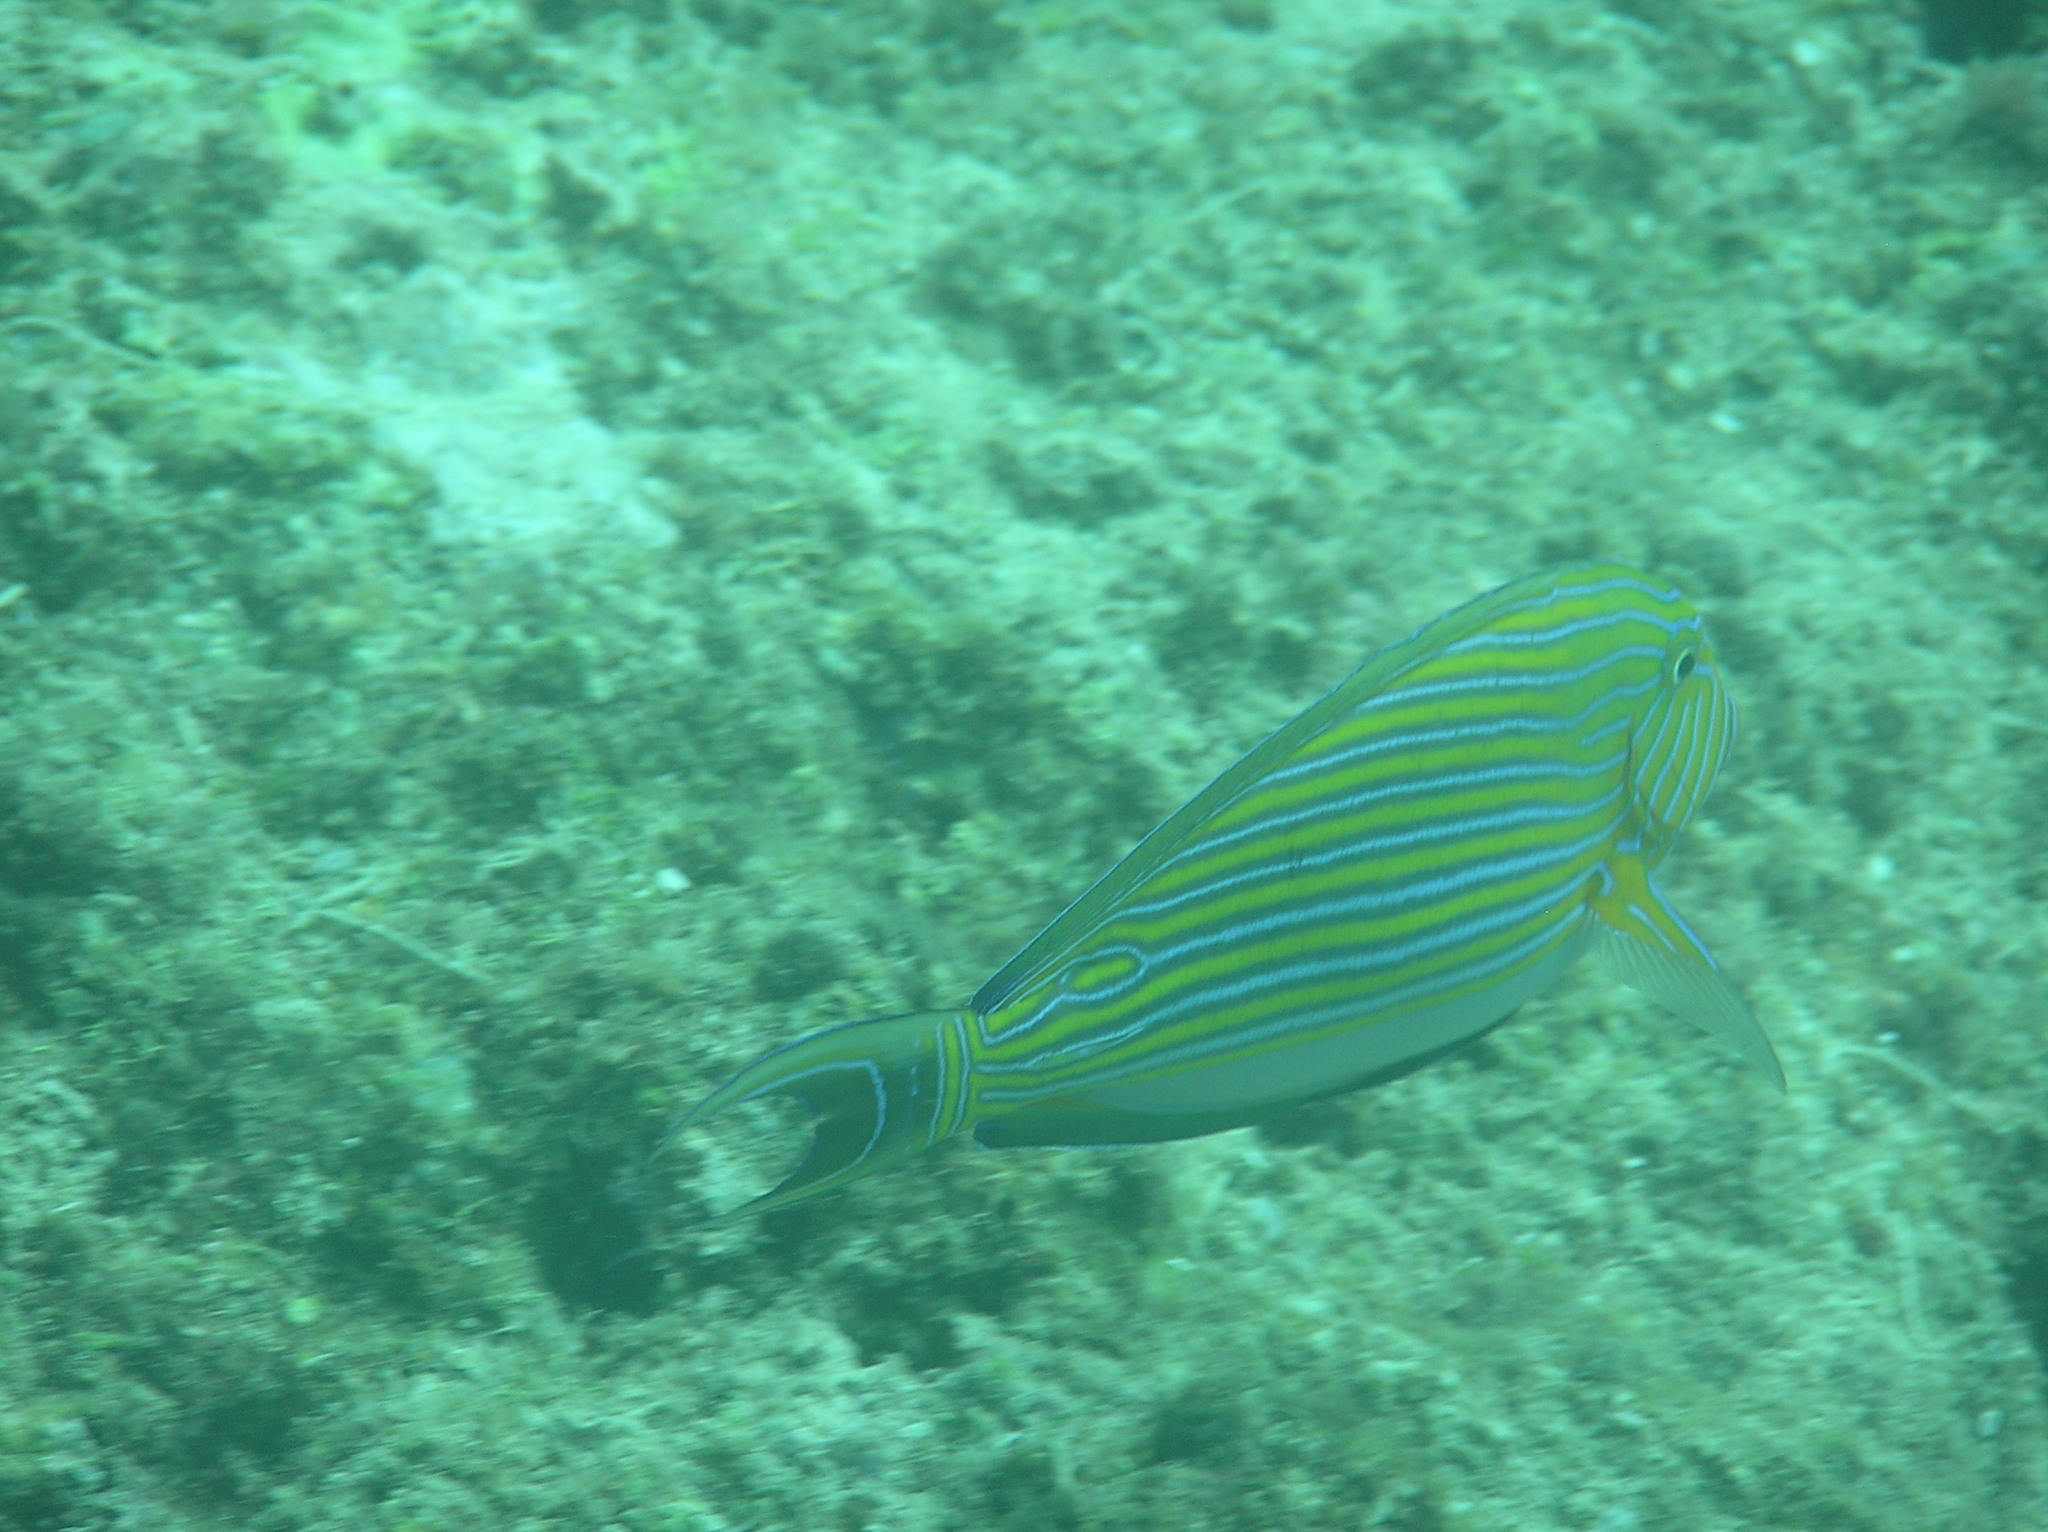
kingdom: Animalia
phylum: Chordata
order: Perciformes
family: Acanthuridae
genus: Acanthurus
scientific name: Acanthurus lineatus
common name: Striped surgeonfish
